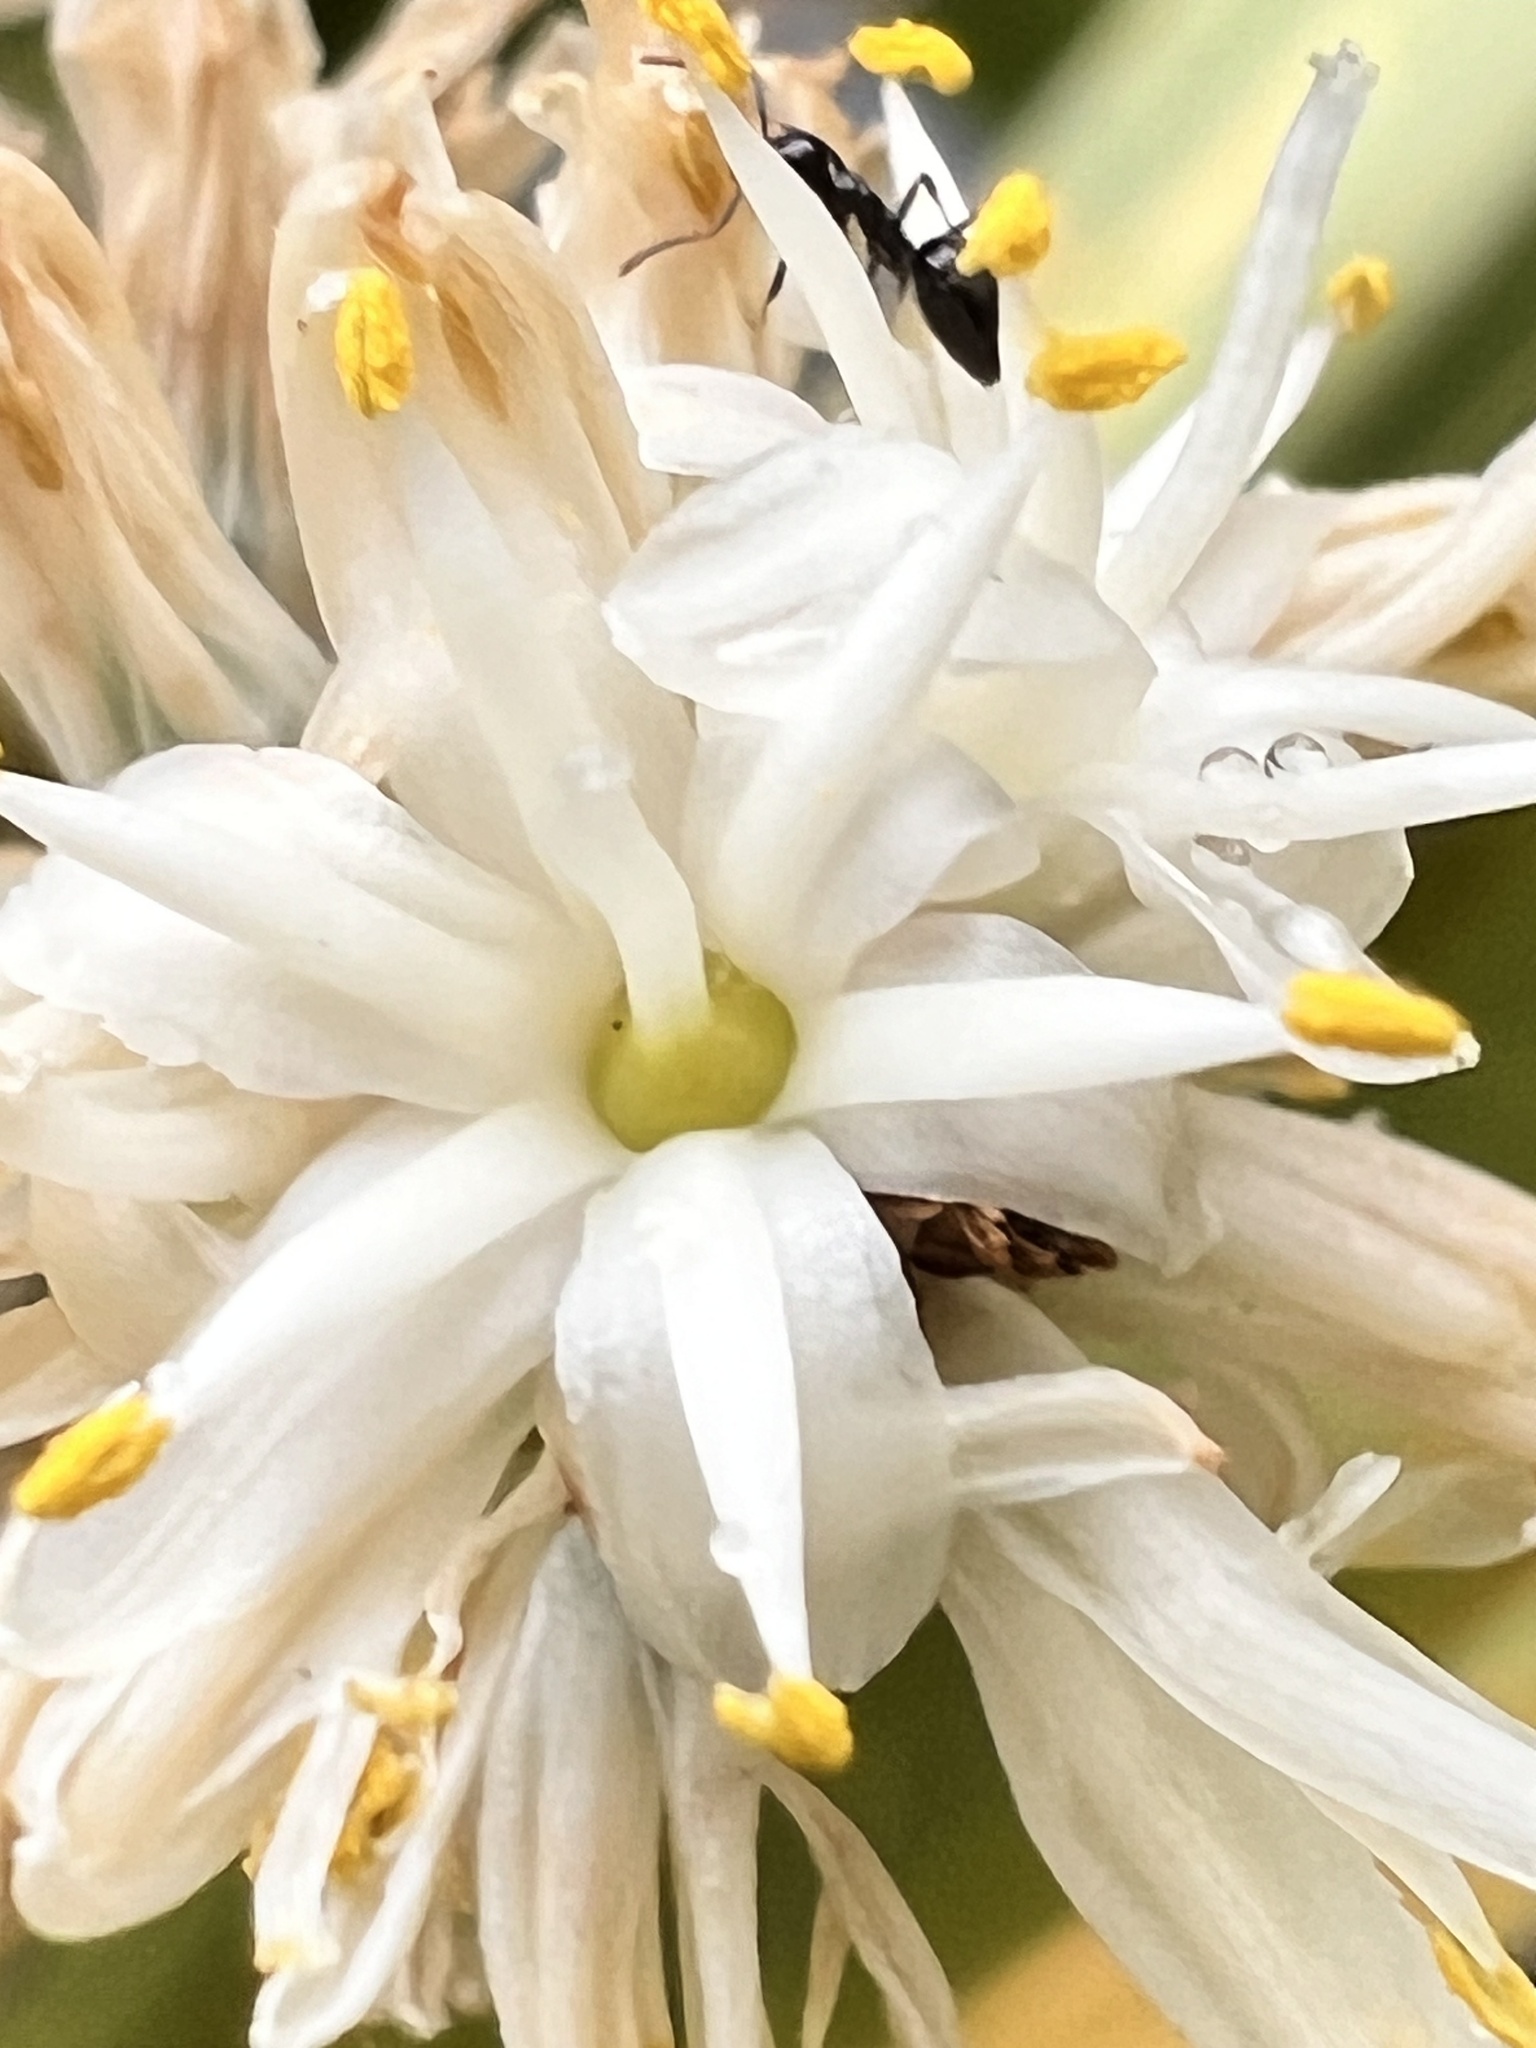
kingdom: Plantae
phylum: Tracheophyta
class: Liliopsida
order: Asparagales
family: Asparagaceae
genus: Cordyline
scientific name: Cordyline australis
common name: Cabbage-palm
